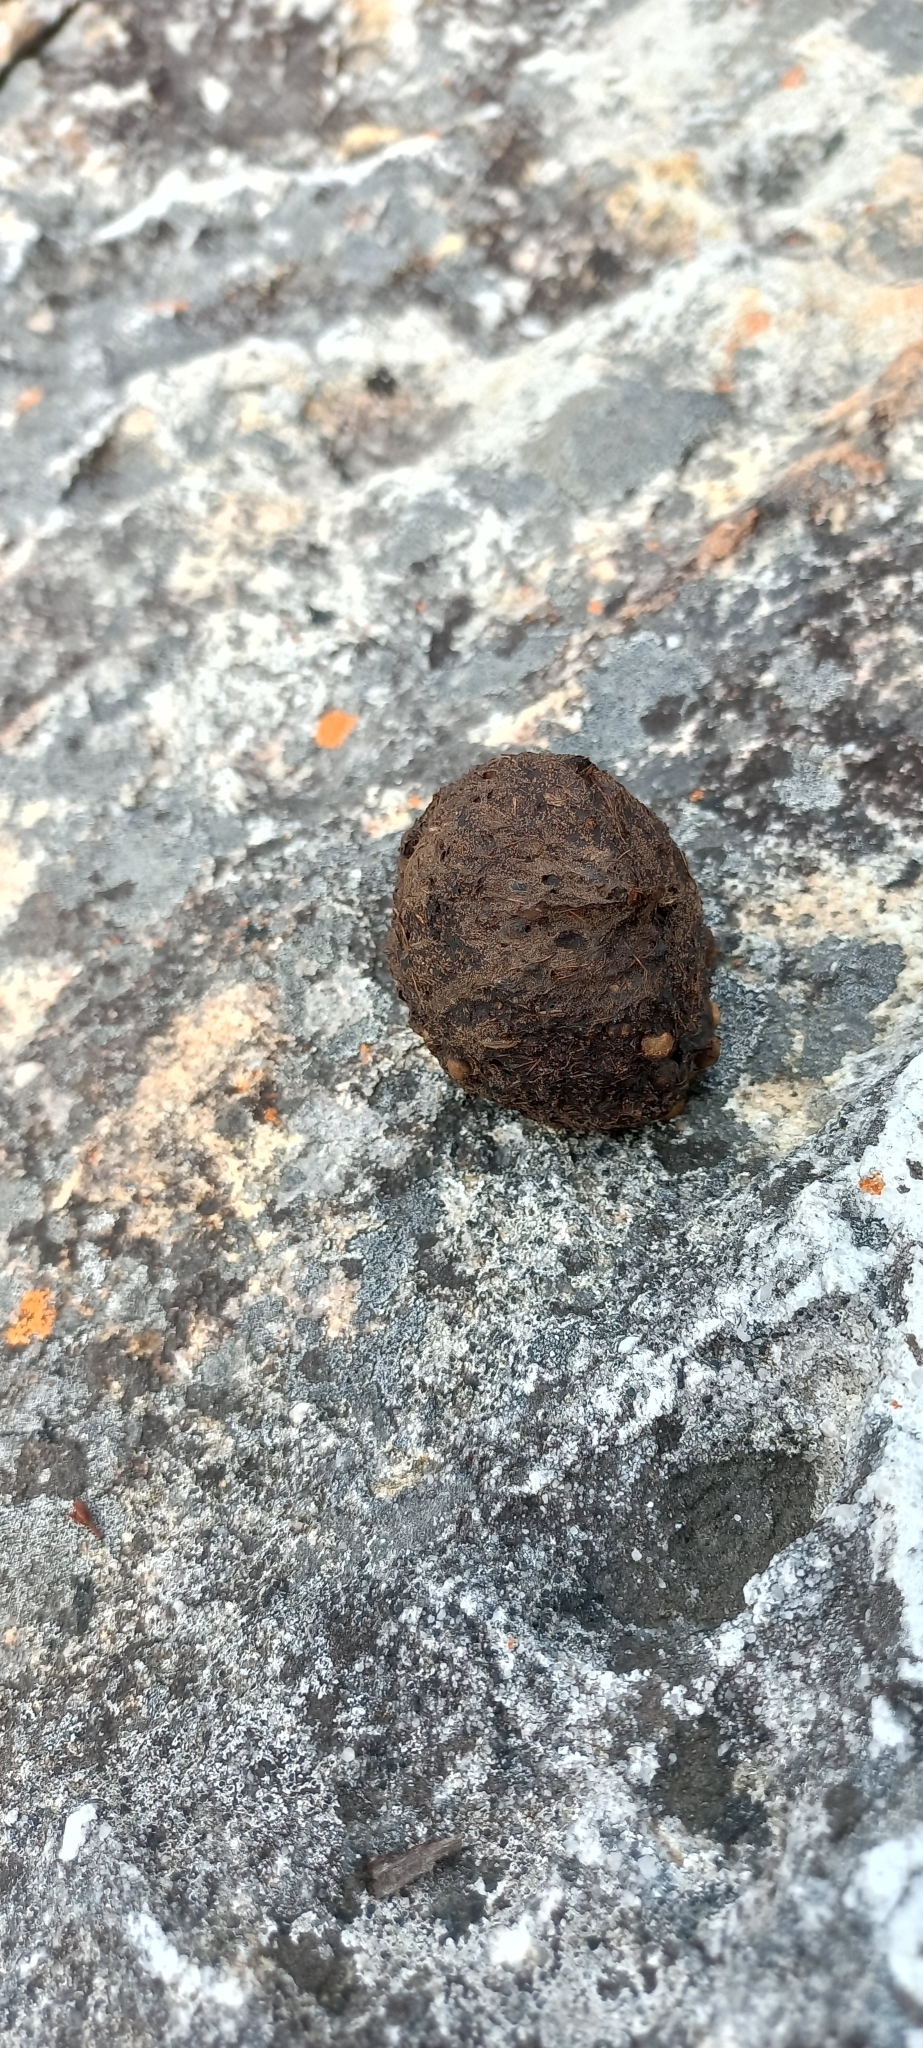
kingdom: Animalia
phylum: Chordata
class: Mammalia
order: Primates
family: Cercopithecidae
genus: Papio
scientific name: Papio ursinus
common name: Chacma baboon
